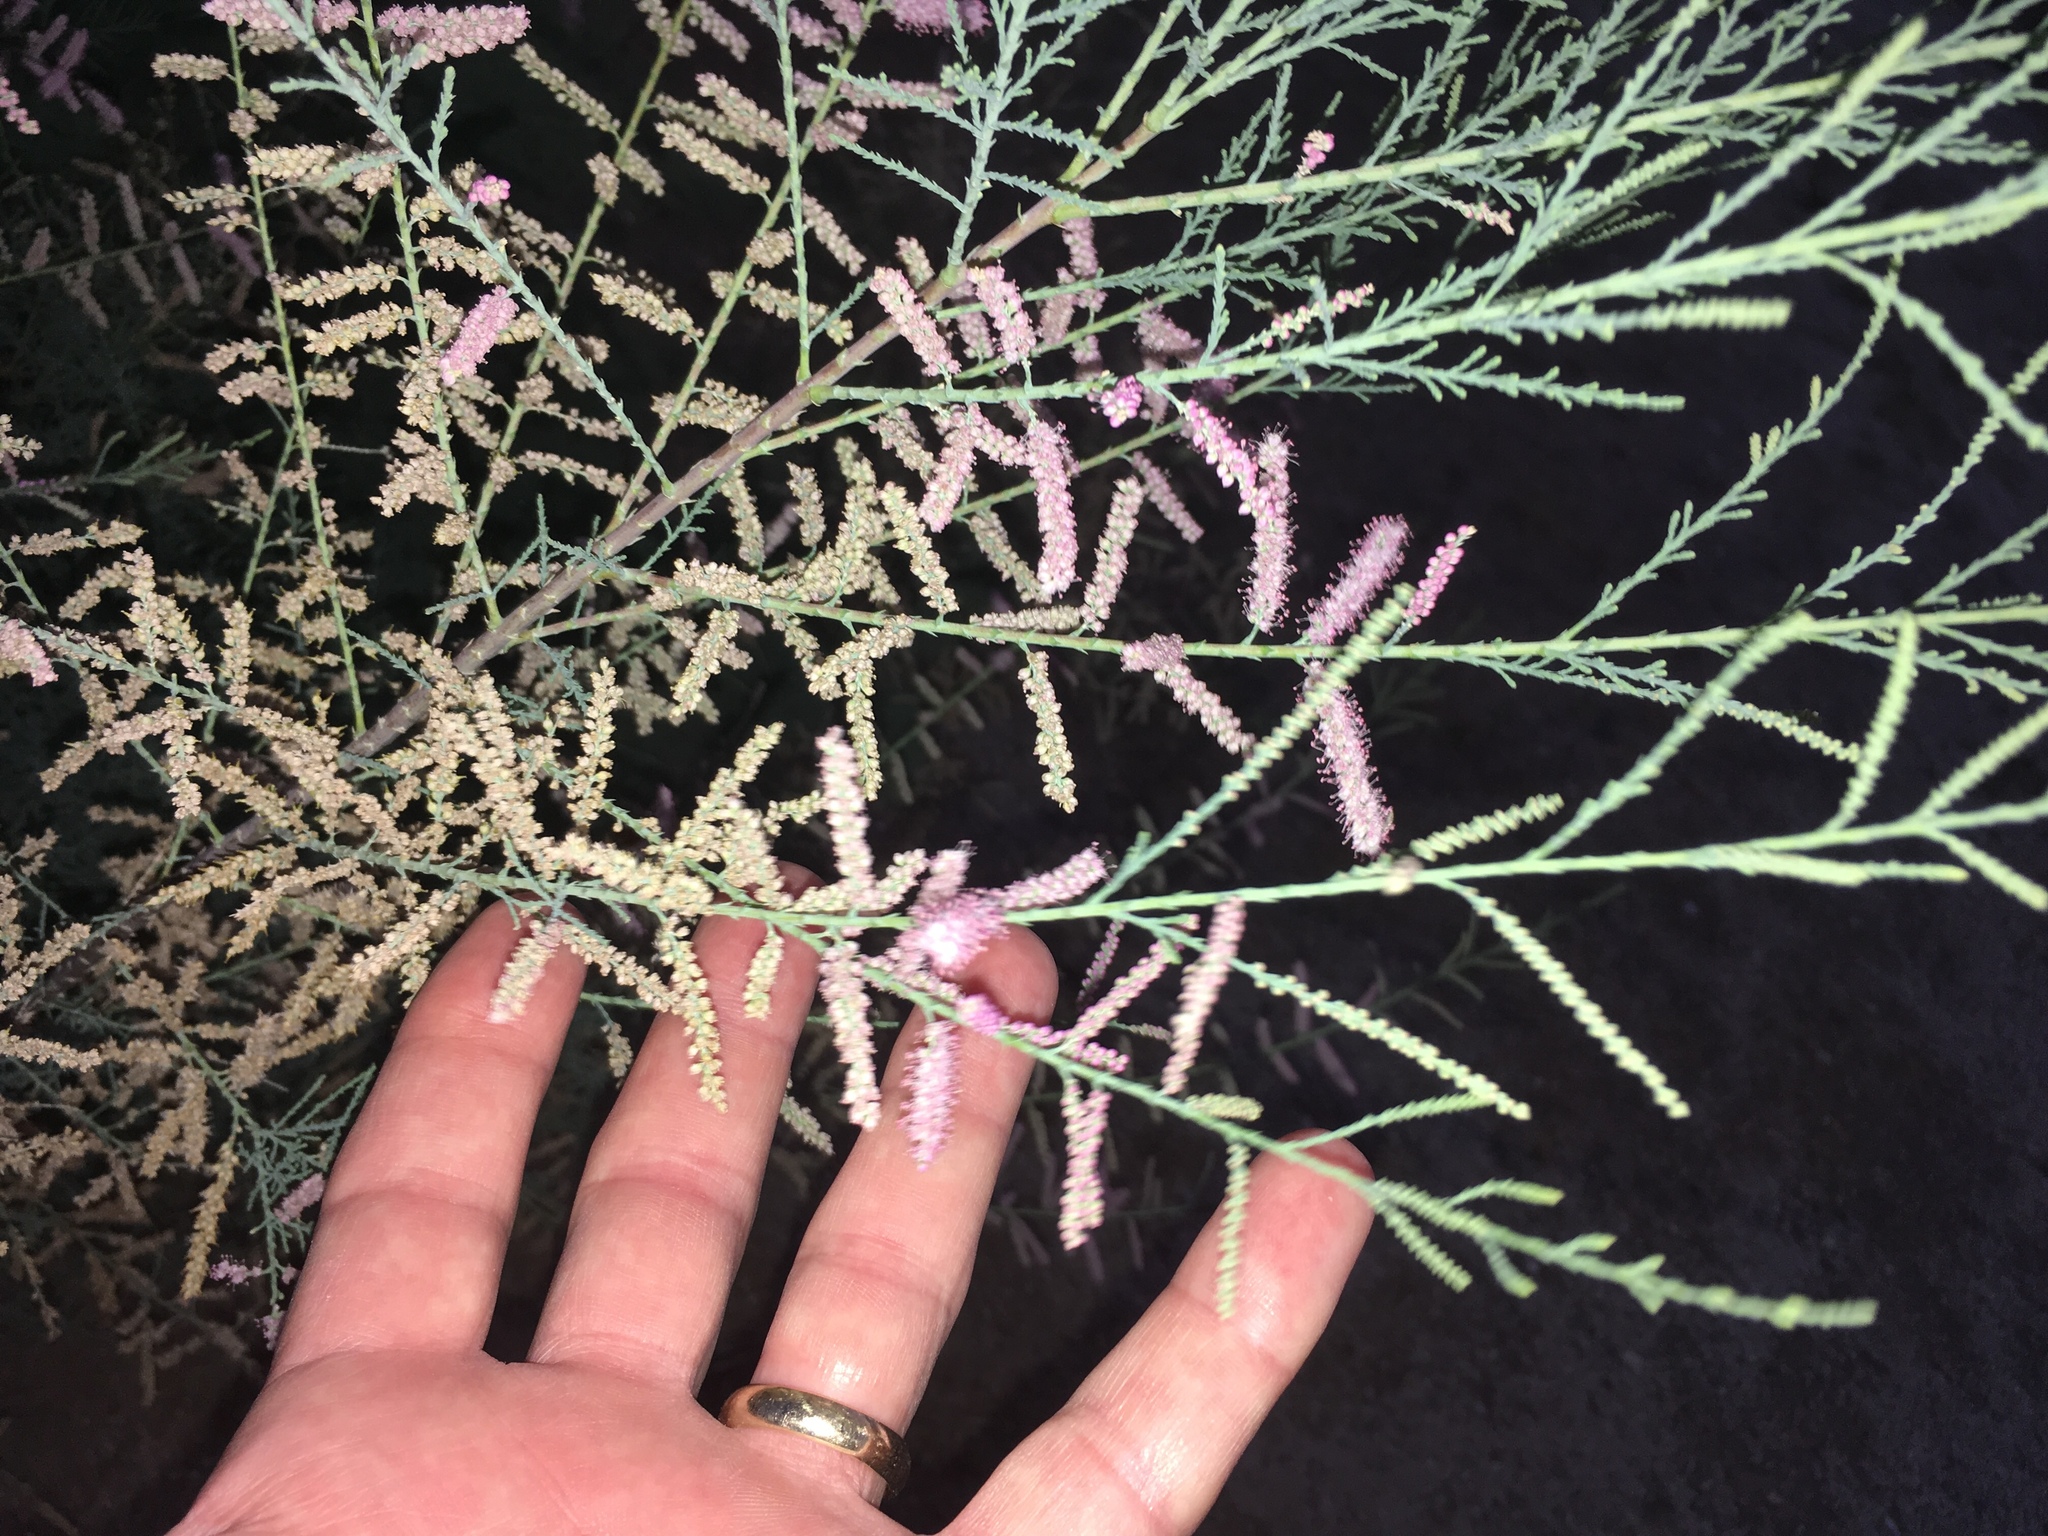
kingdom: Plantae
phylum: Tracheophyta
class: Magnoliopsida
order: Caryophyllales
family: Tamaricaceae
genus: Tamarix
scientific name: Tamarix ramosissima
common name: Pink tamarisk
